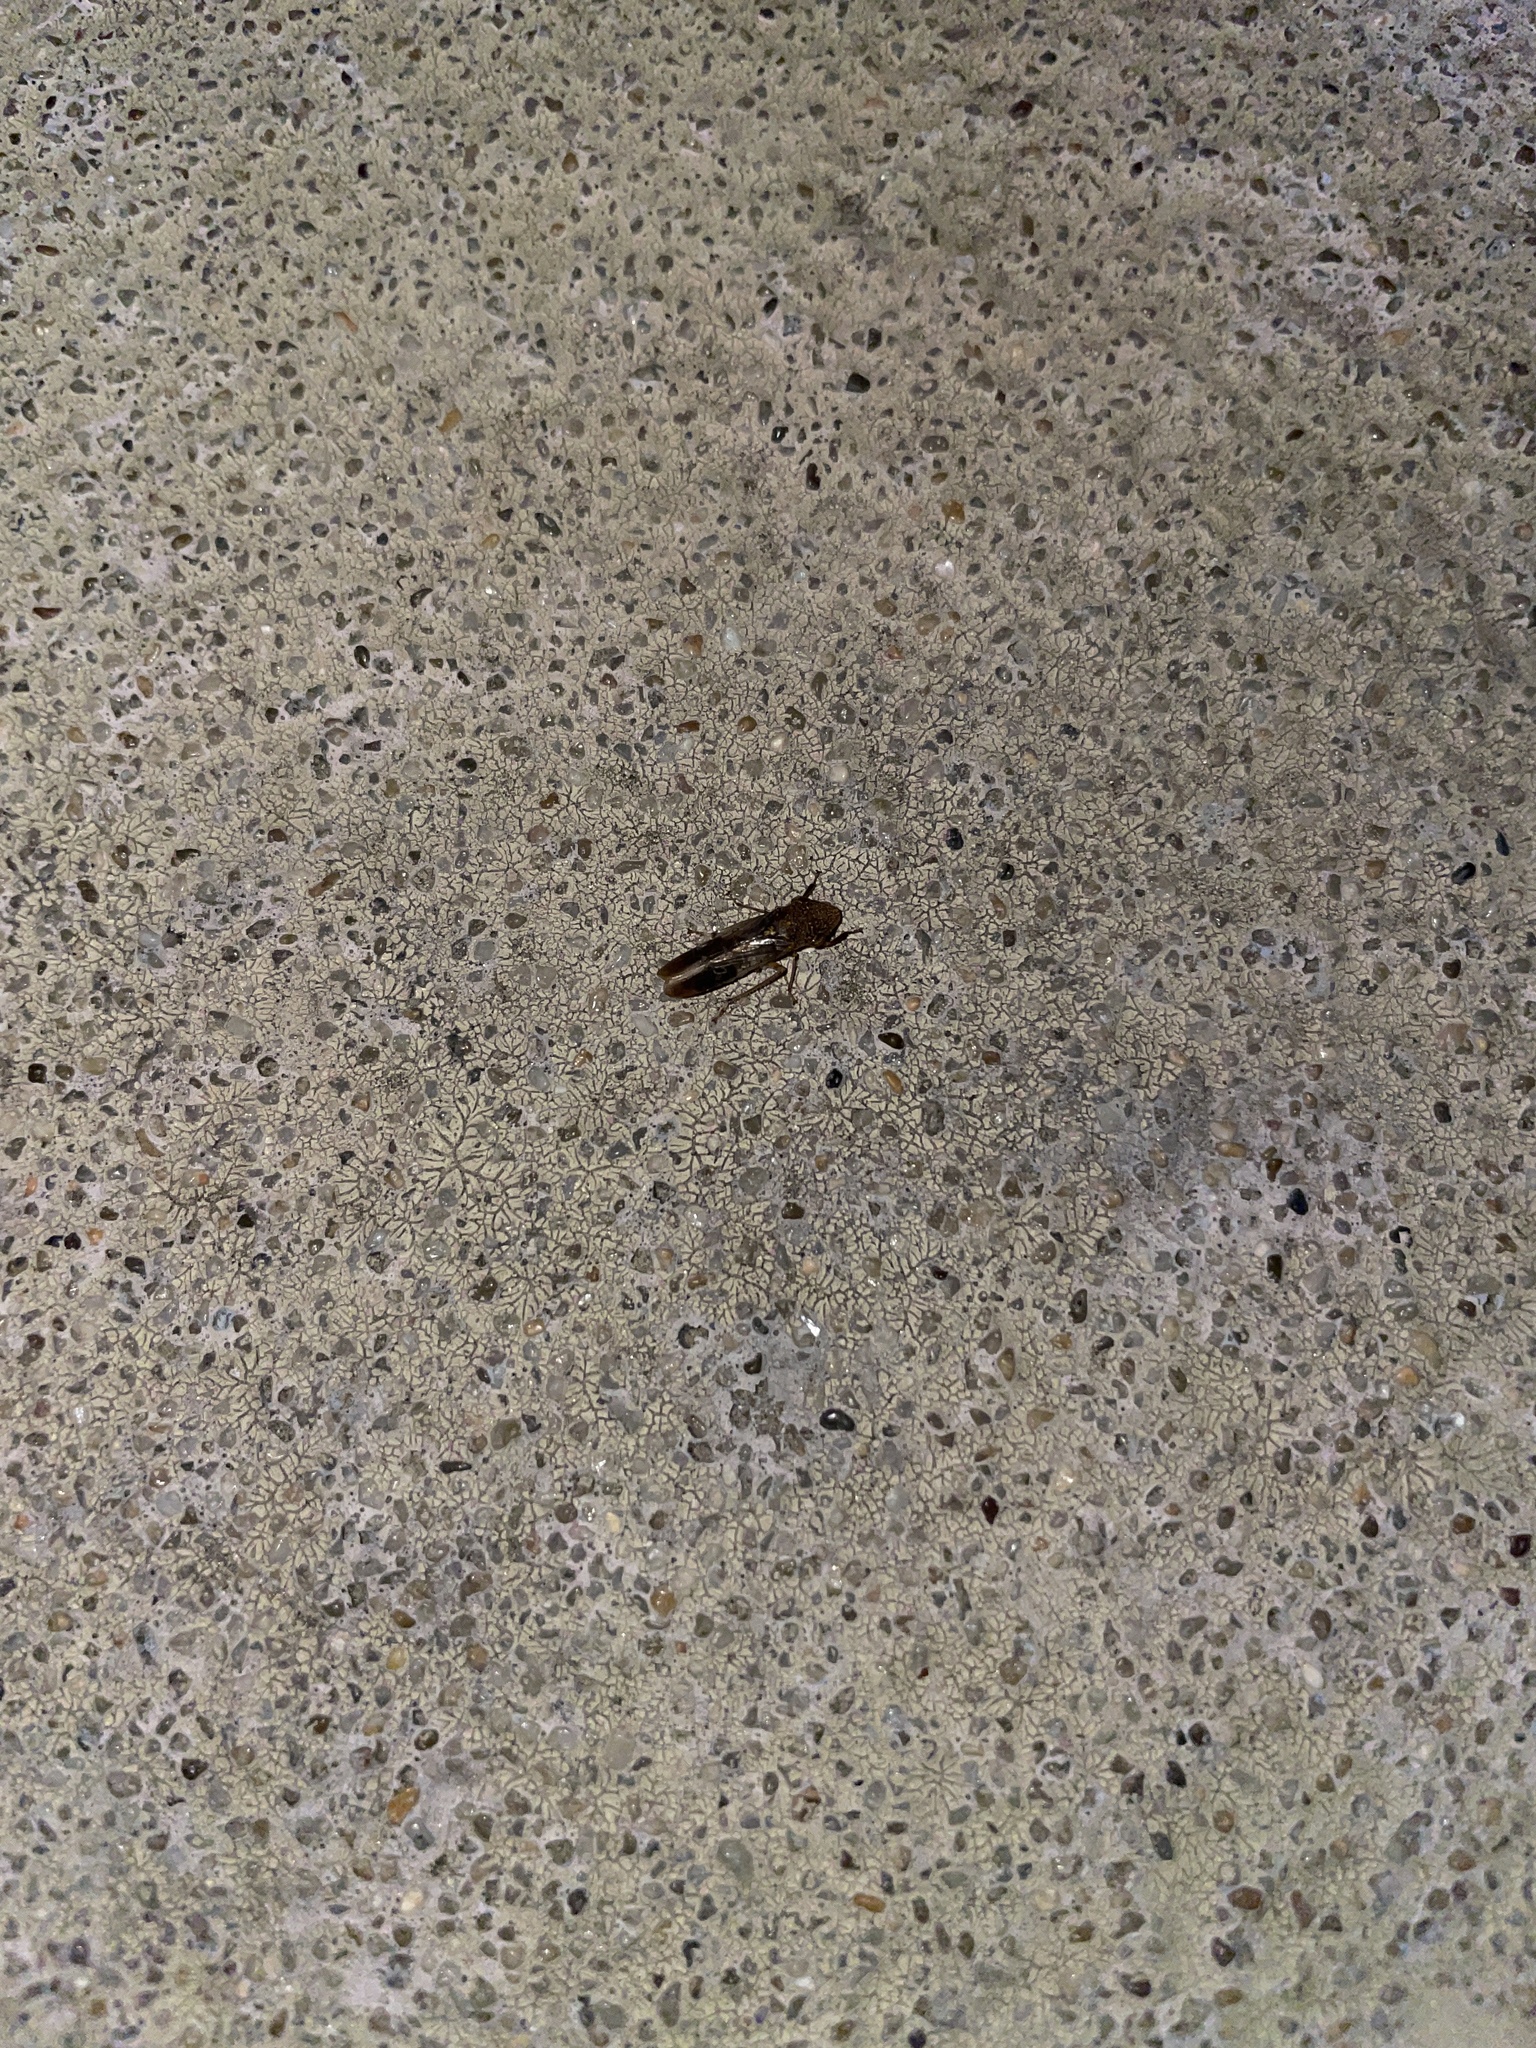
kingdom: Animalia
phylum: Arthropoda
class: Insecta
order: Hemiptera
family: Cicadellidae
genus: Homalodisca
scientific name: Homalodisca vitripennis
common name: Glassy-winged sharpshooter
